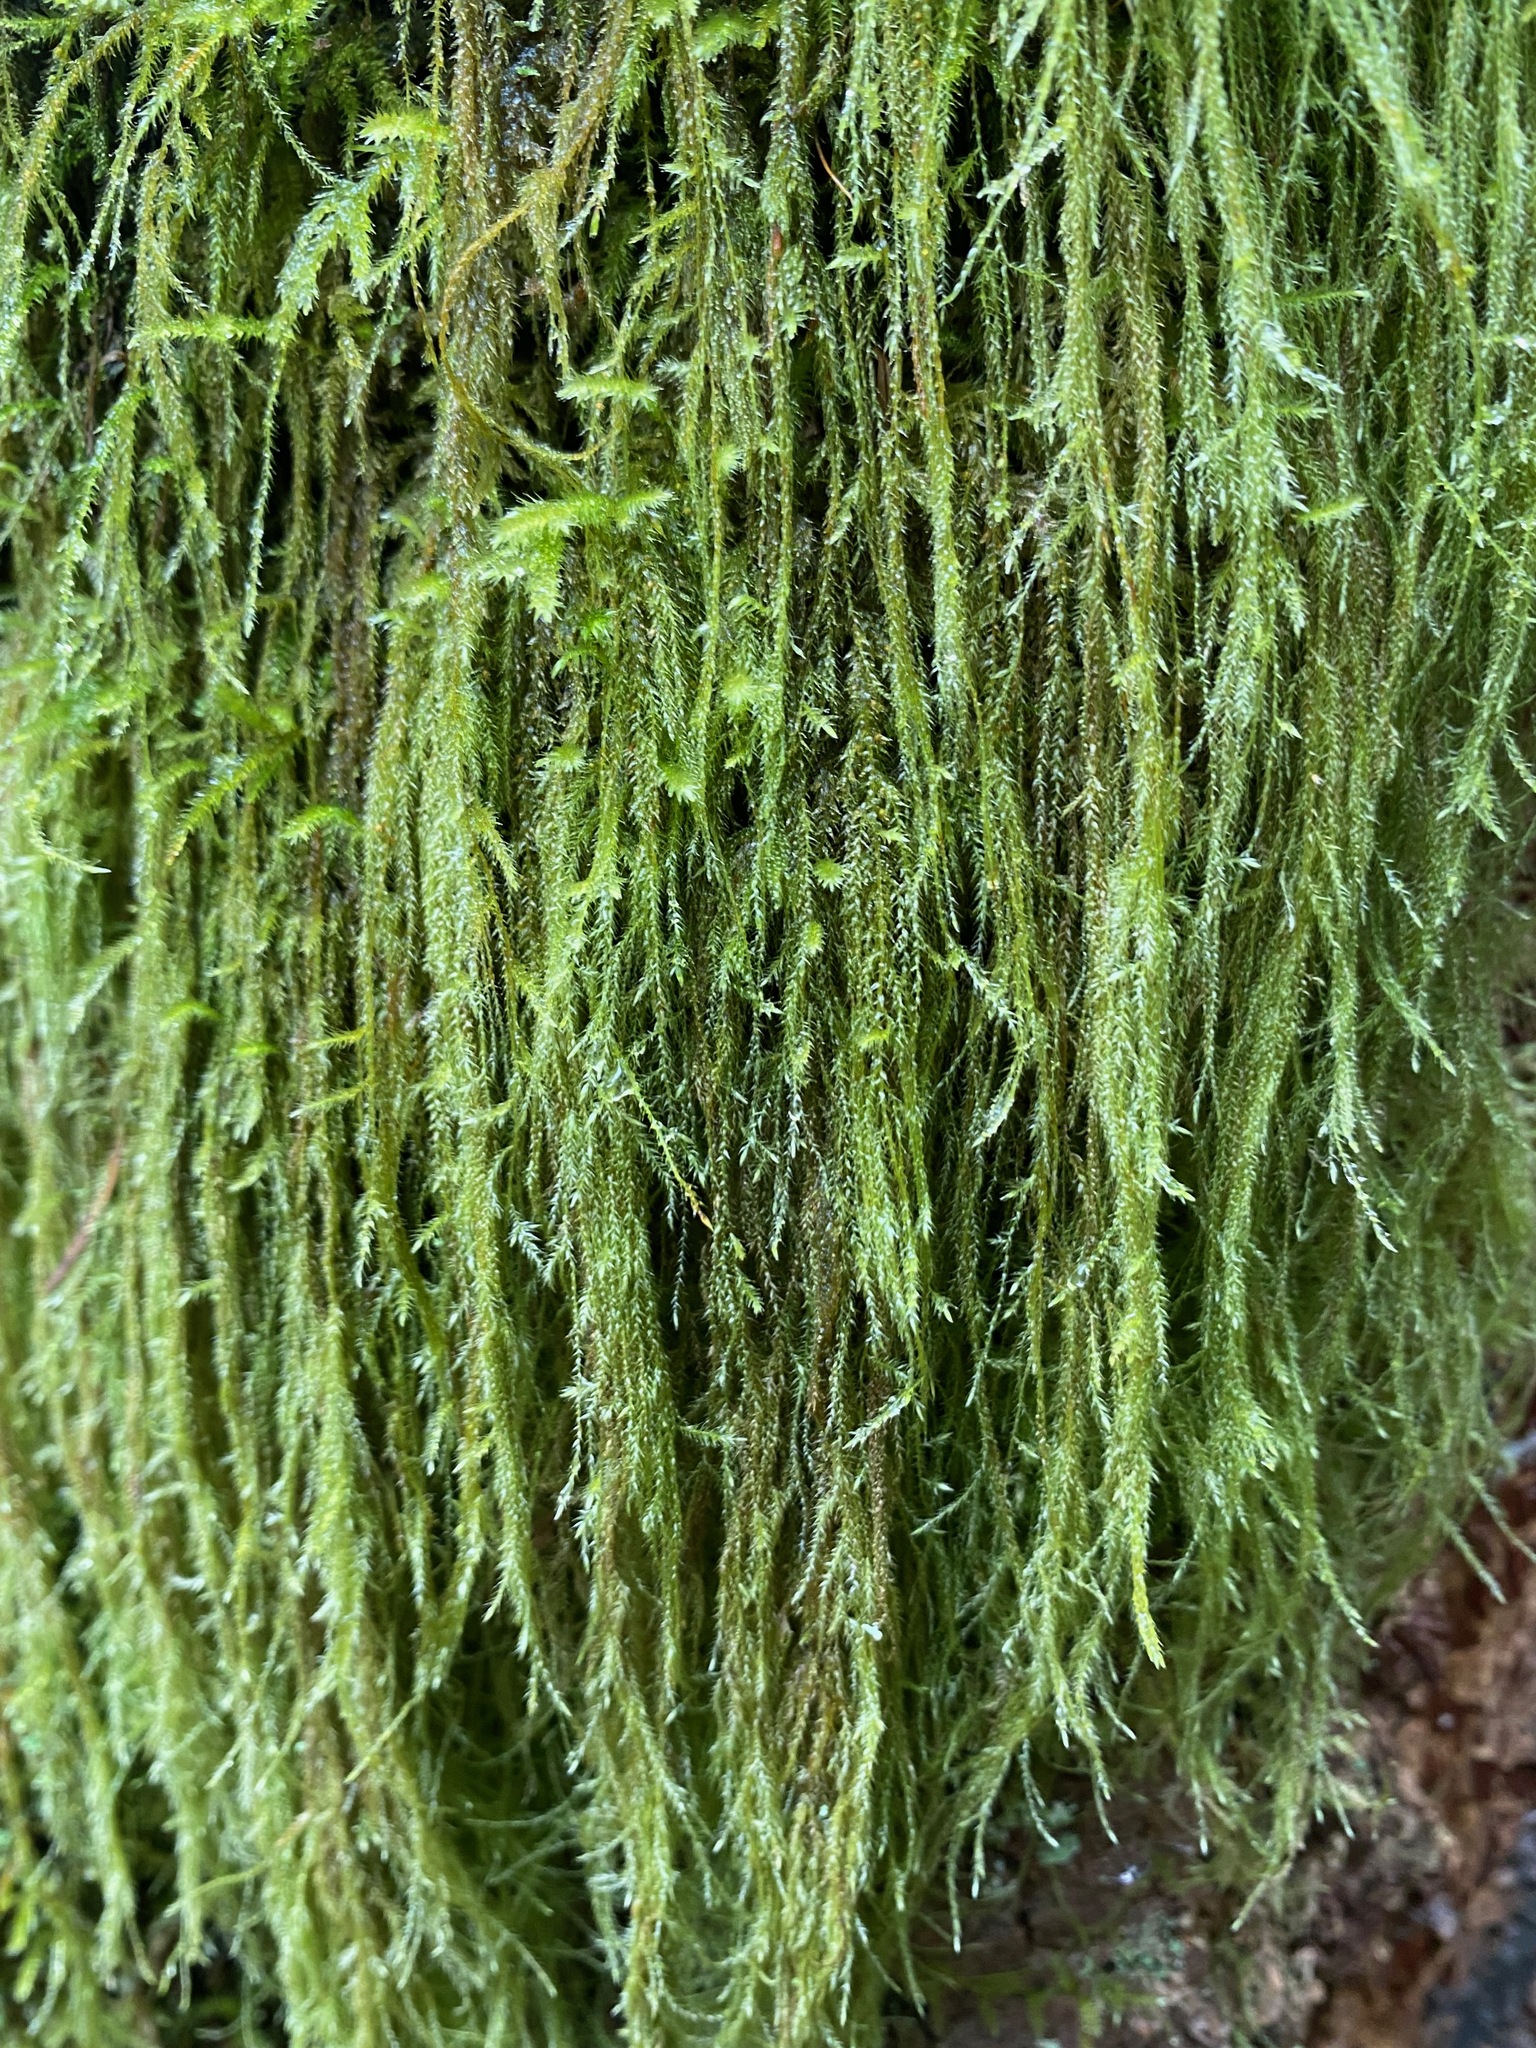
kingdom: Plantae
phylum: Bryophyta
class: Bryopsida
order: Hypnales
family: Lembophyllaceae
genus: Pseudisothecium
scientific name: Pseudisothecium stoloniferum
